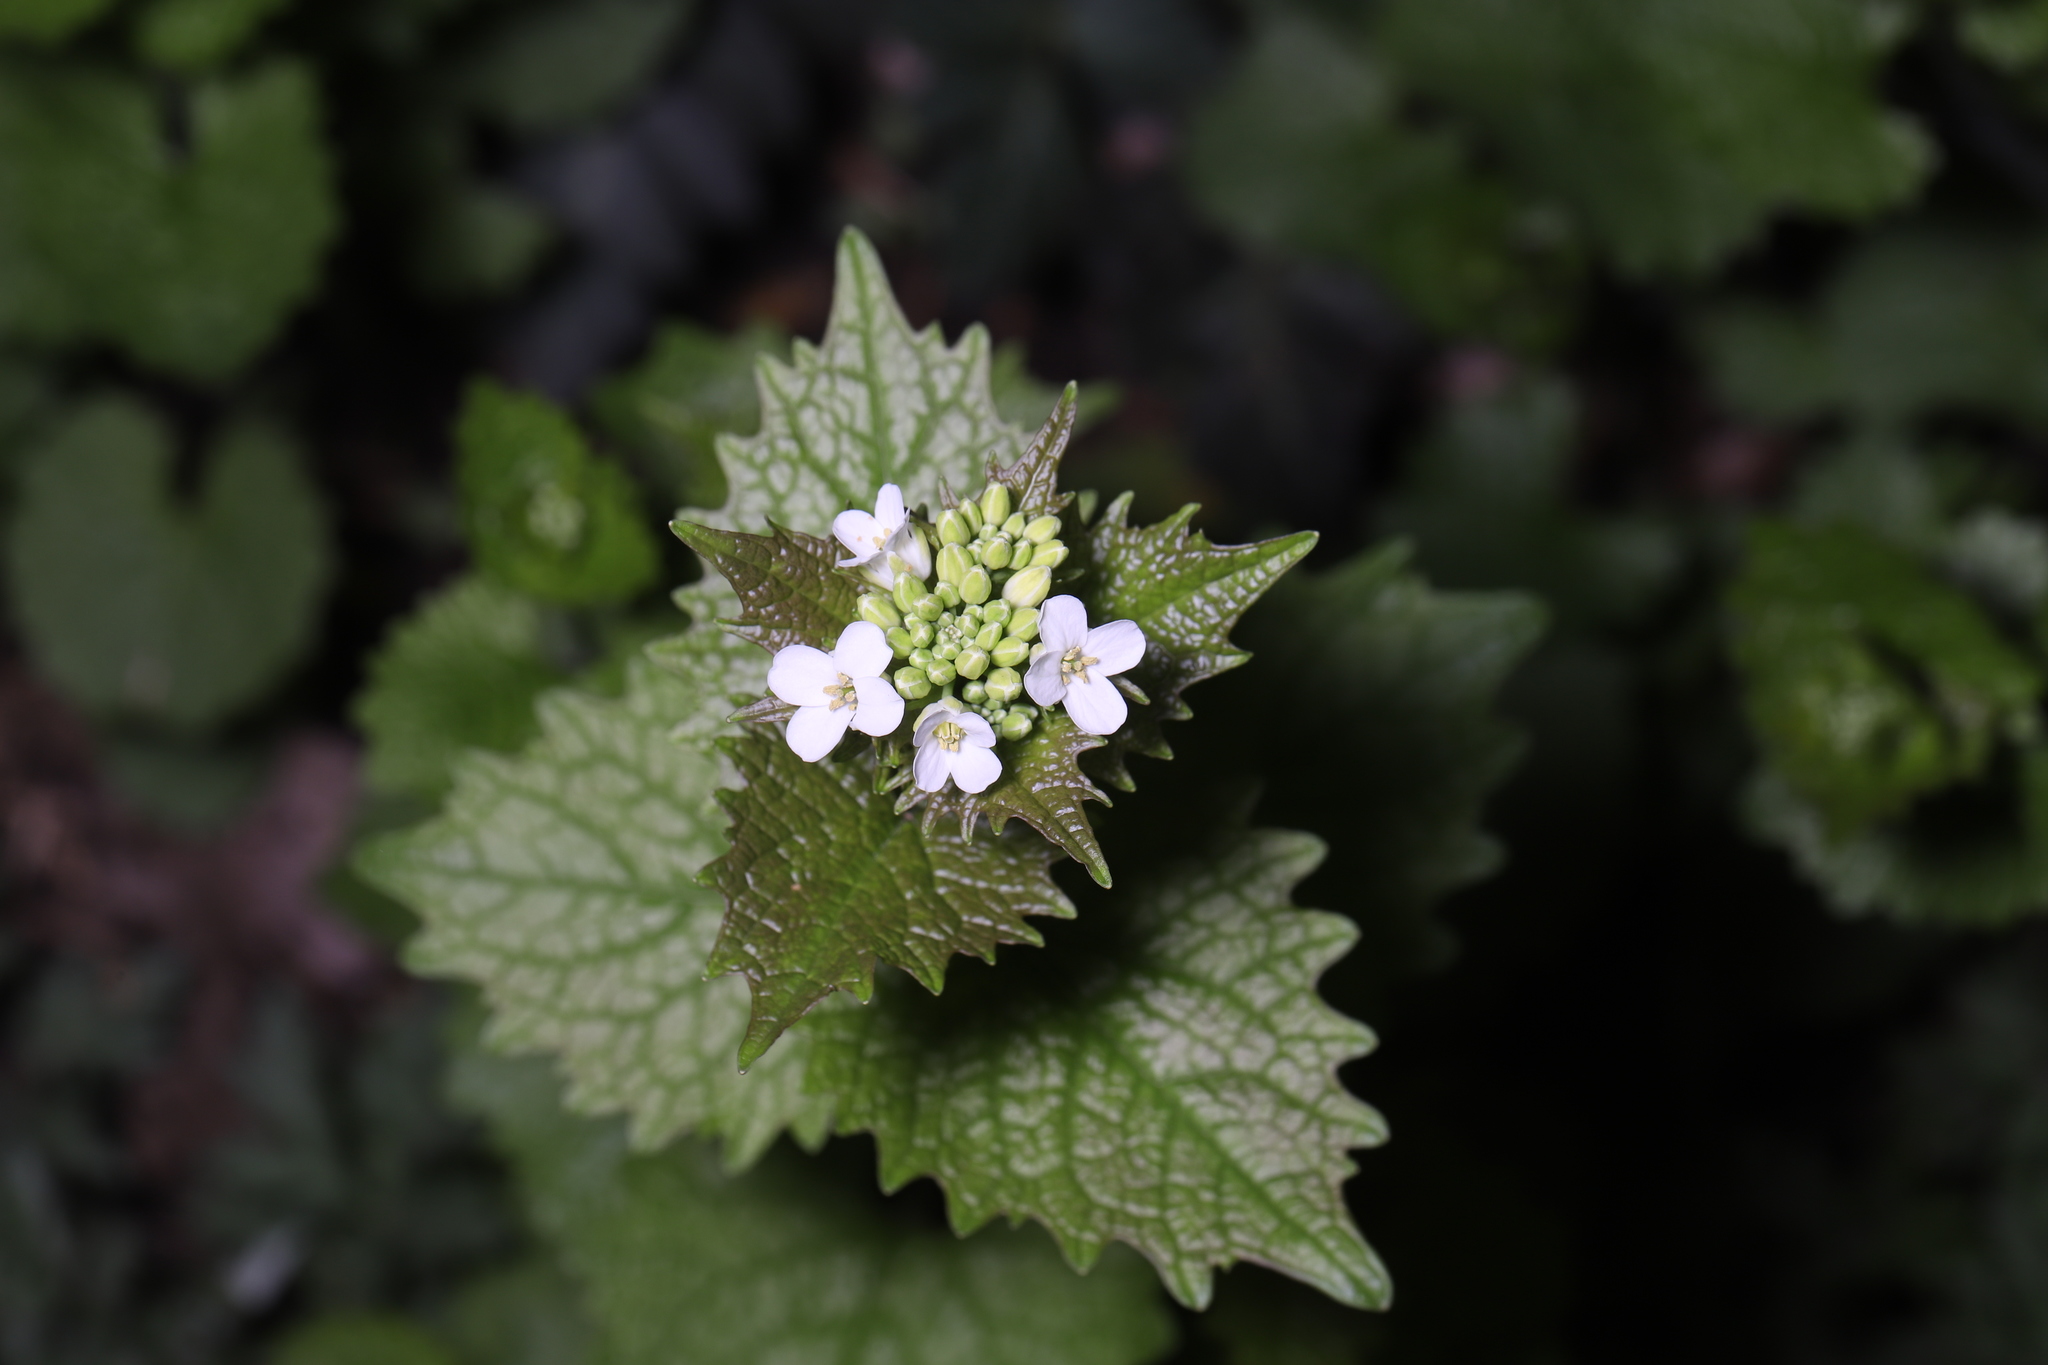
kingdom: Plantae
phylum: Tracheophyta
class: Magnoliopsida
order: Brassicales
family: Brassicaceae
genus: Alliaria
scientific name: Alliaria petiolata
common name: Garlic mustard
